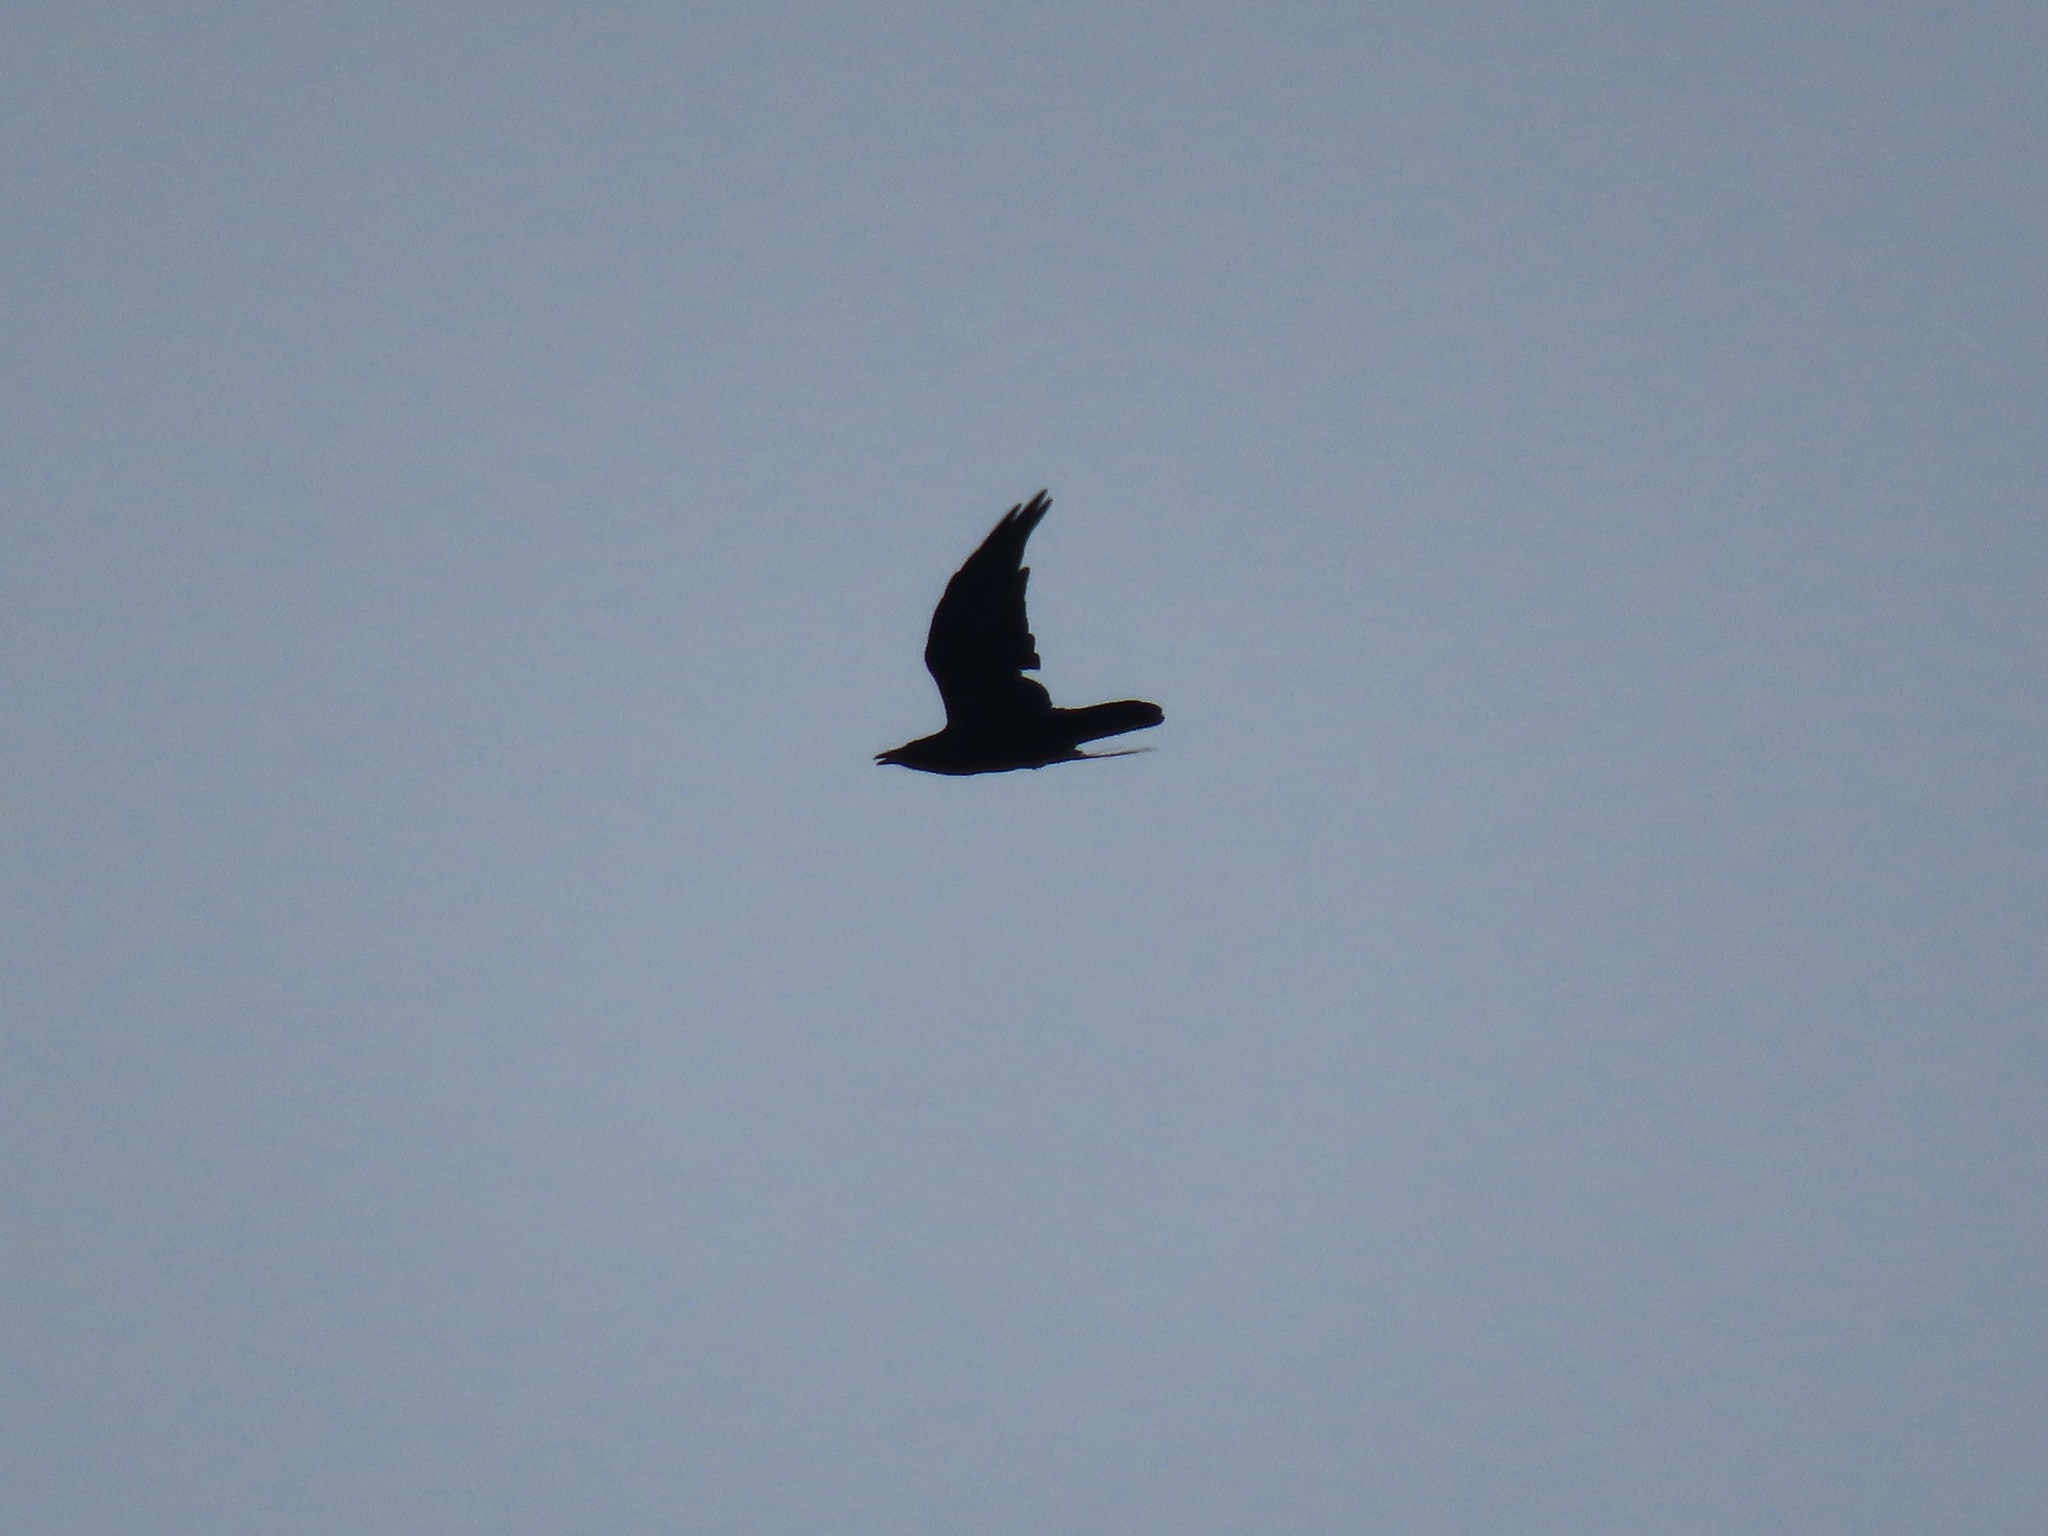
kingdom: Animalia
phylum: Chordata
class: Aves
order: Passeriformes
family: Corvidae
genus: Corvus
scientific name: Corvus corax
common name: Common raven
